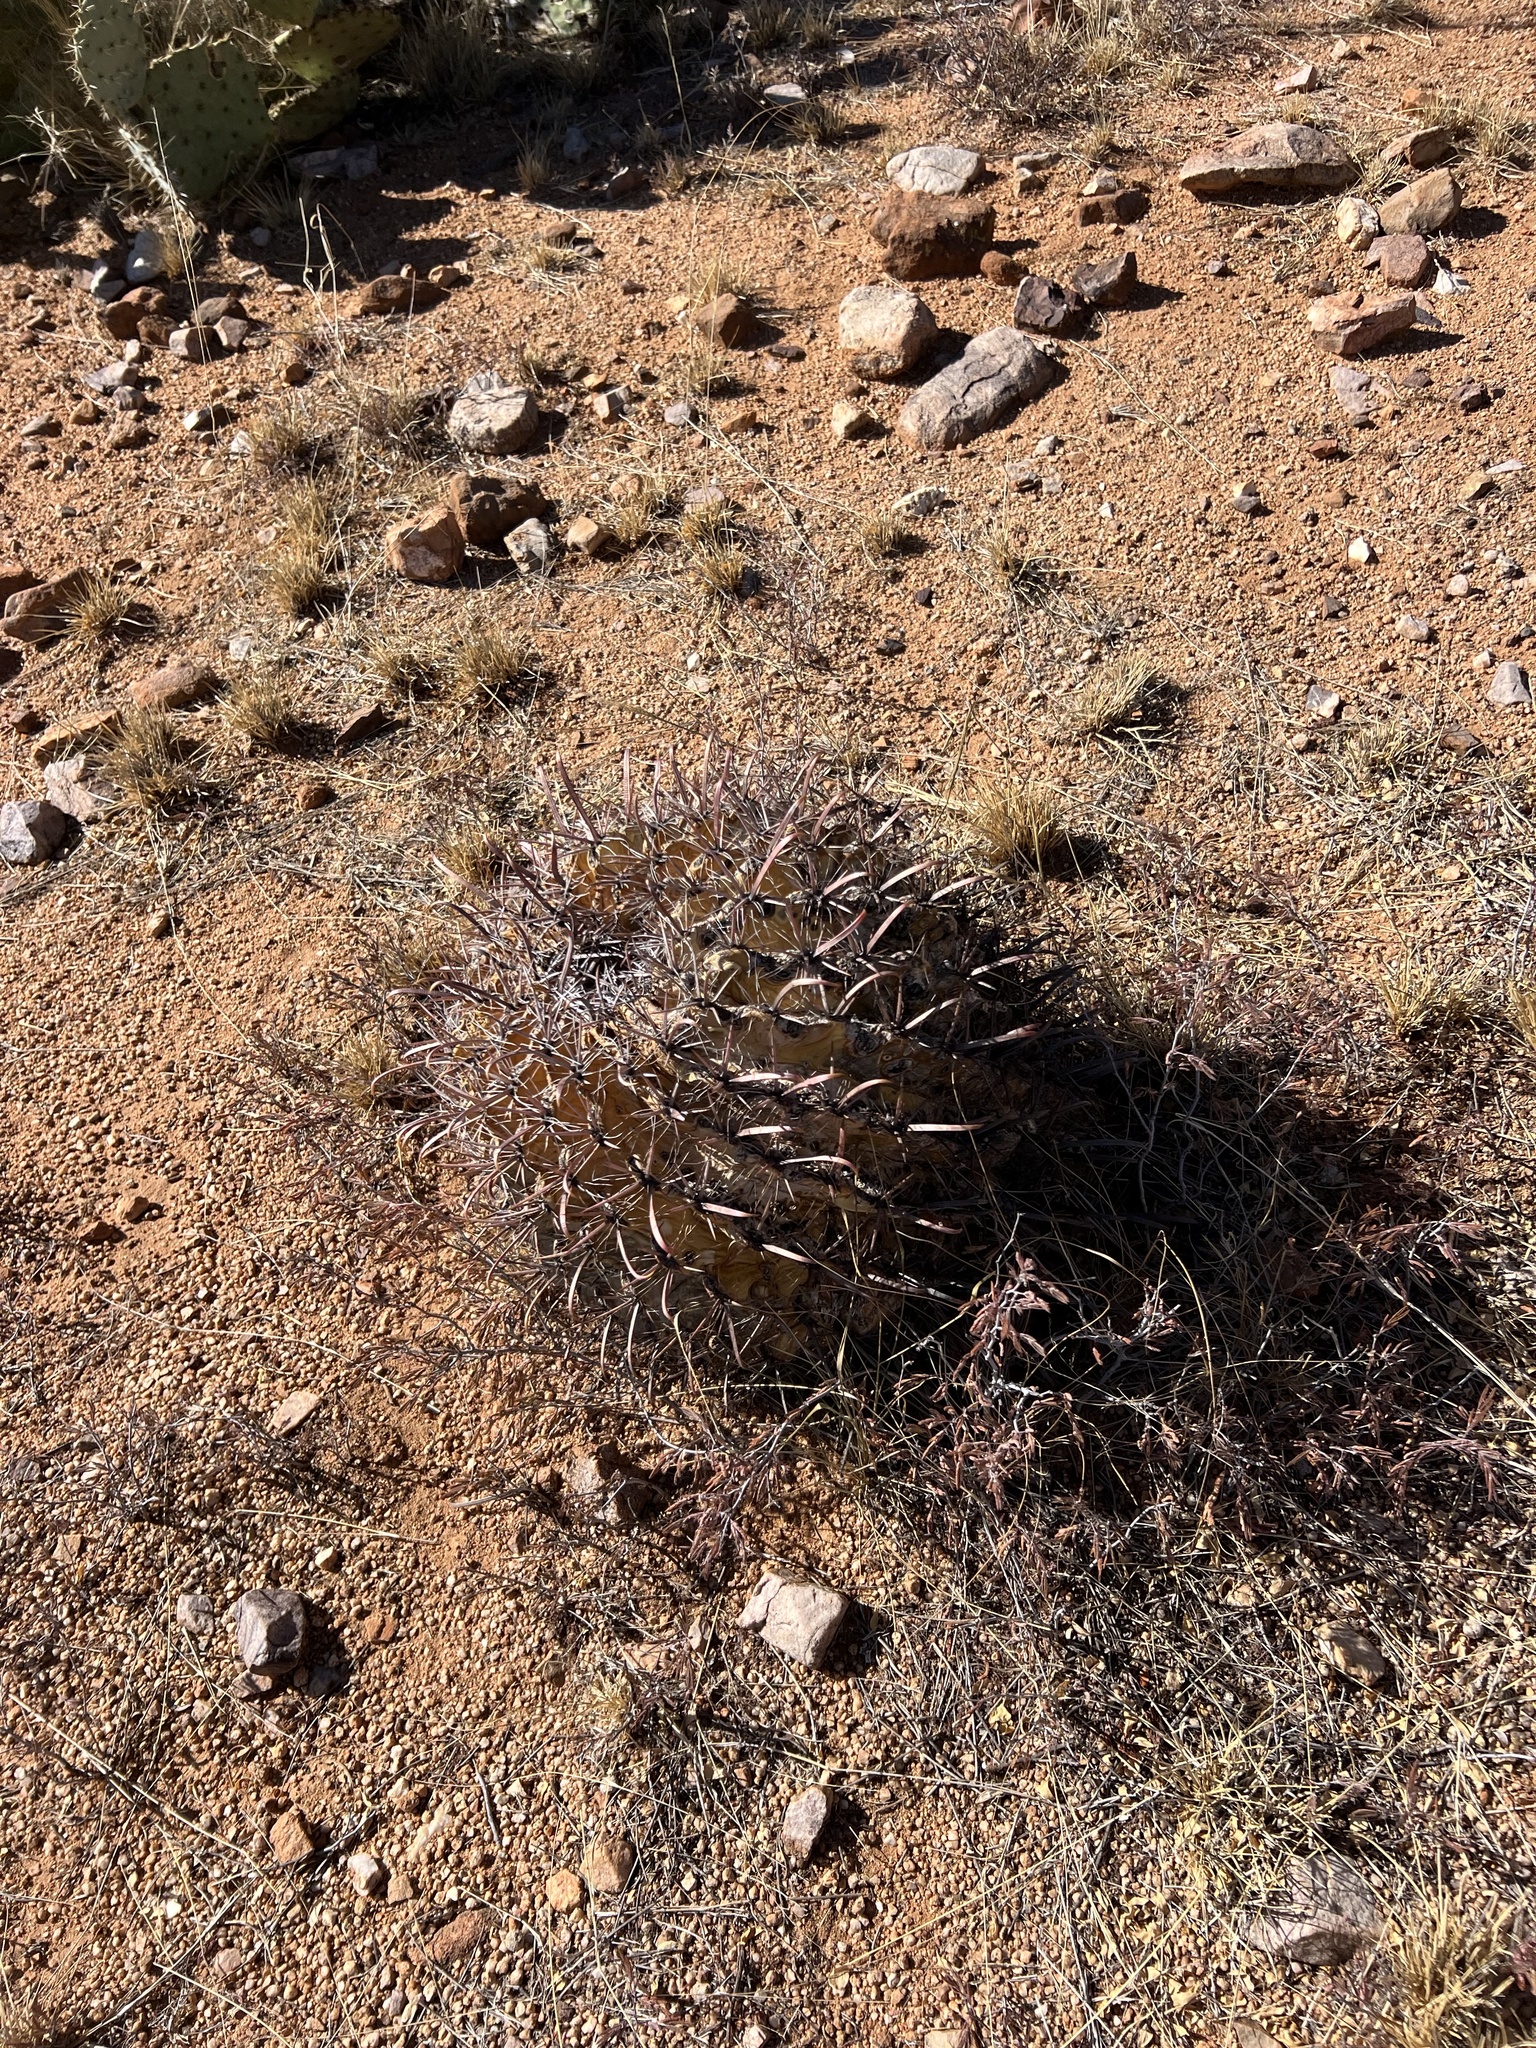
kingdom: Plantae
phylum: Tracheophyta
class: Magnoliopsida
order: Caryophyllales
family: Cactaceae
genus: Ferocactus
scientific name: Ferocactus wislizeni
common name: Candy barrel cactus
